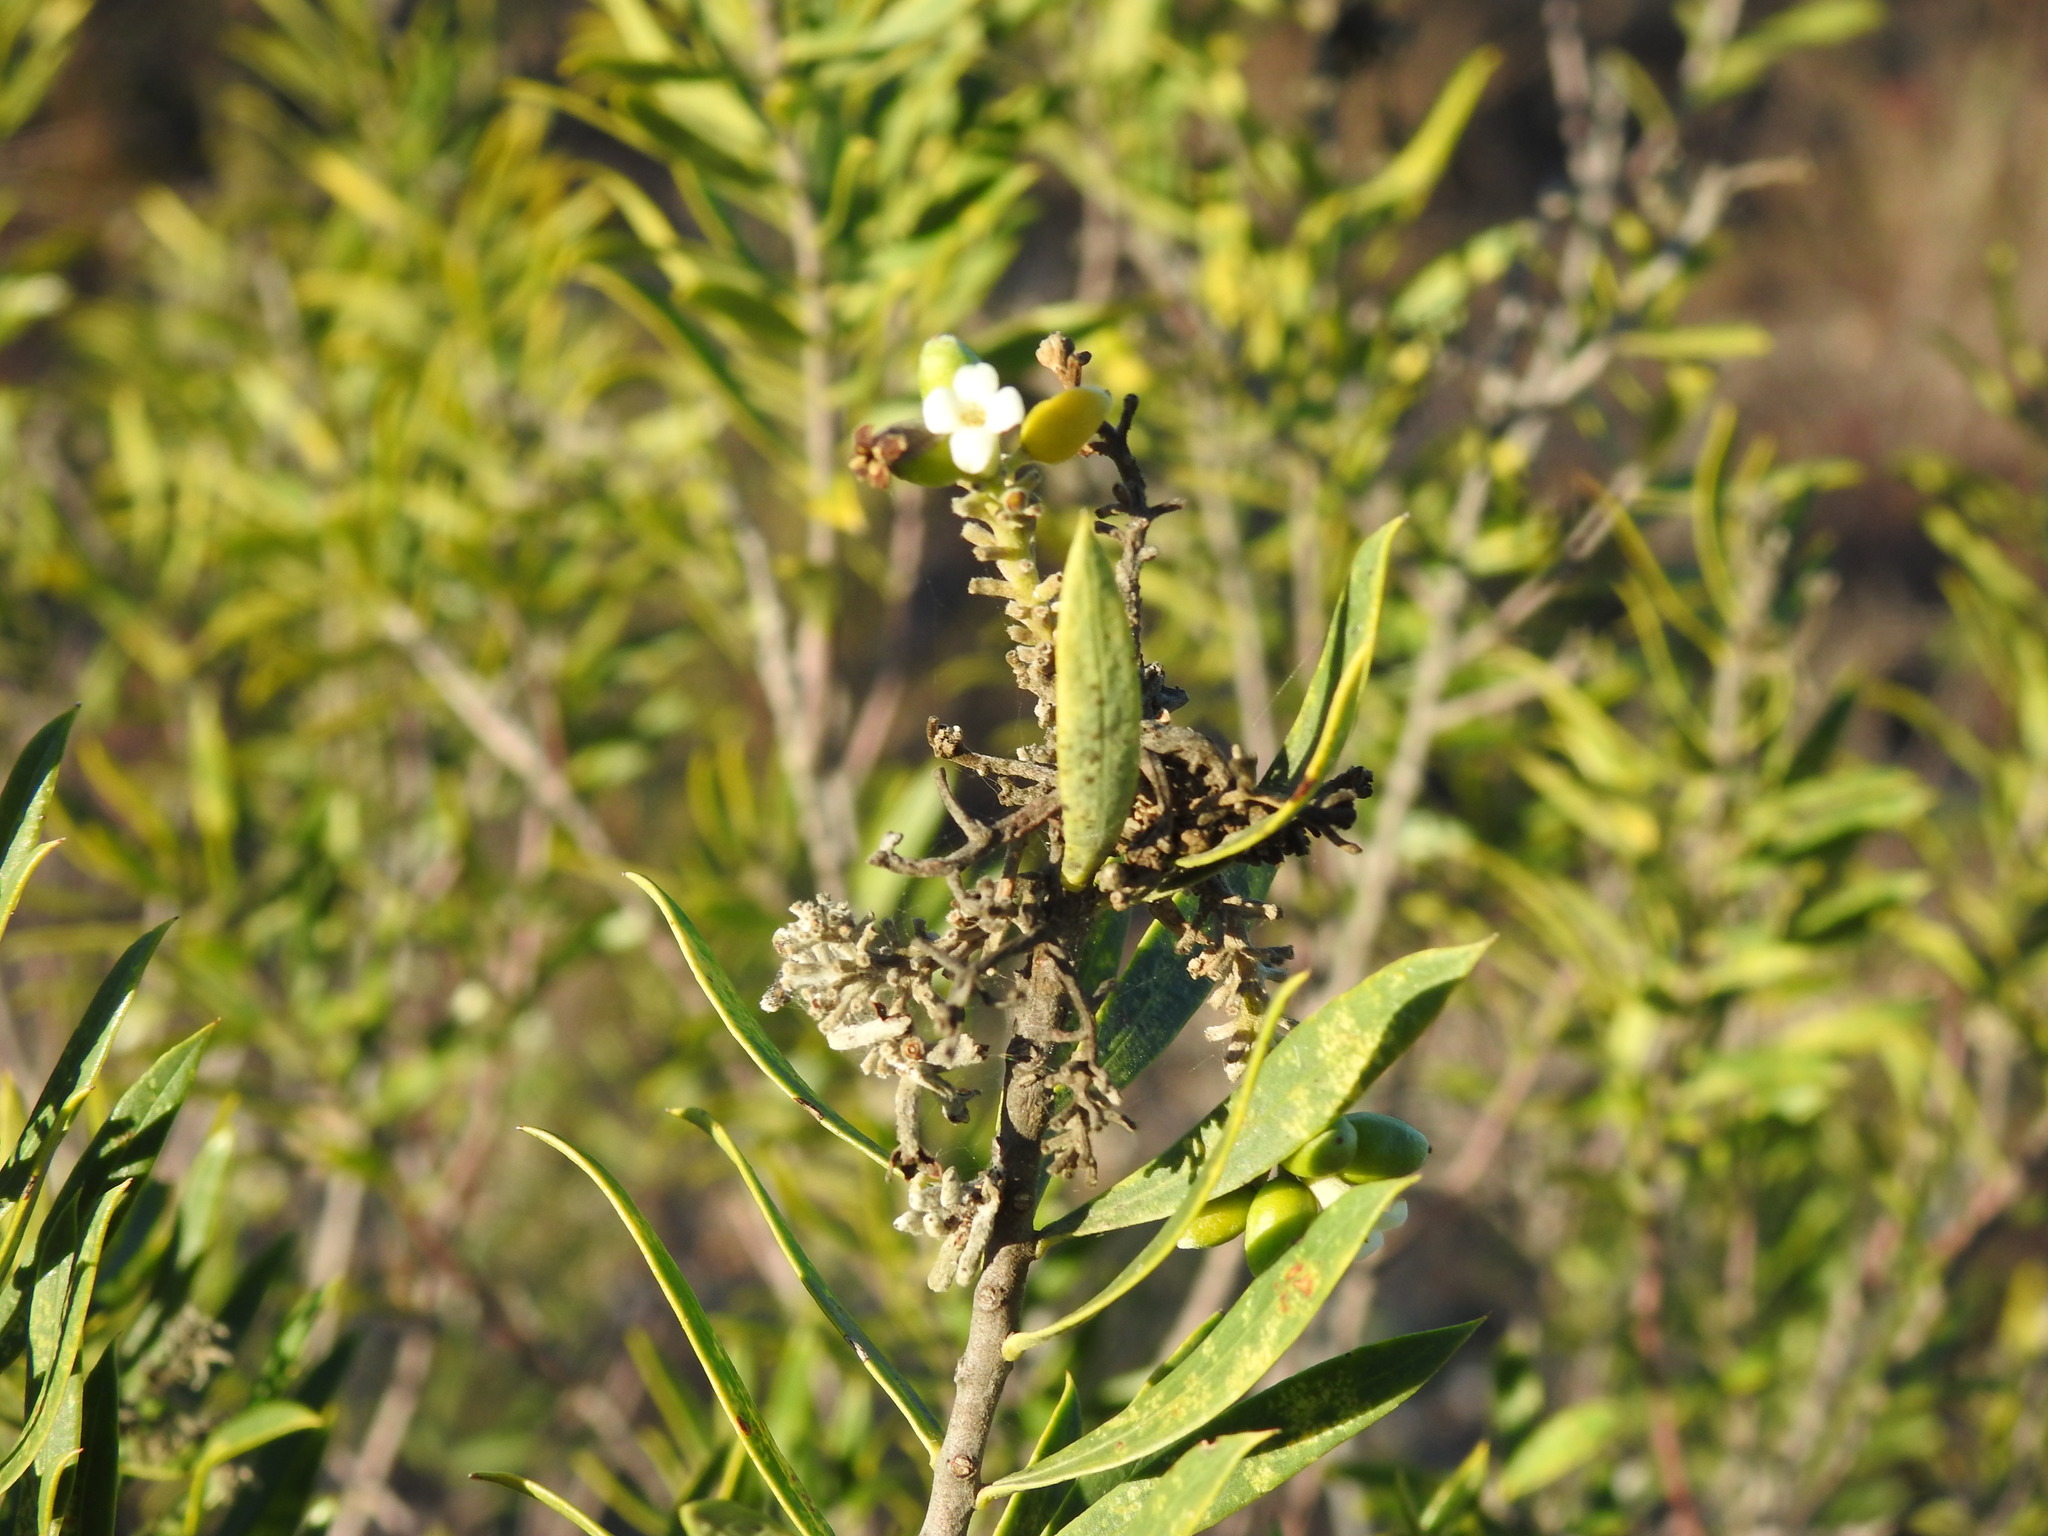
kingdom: Plantae
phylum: Tracheophyta
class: Magnoliopsida
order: Malvales
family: Thymelaeaceae
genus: Daphne
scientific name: Daphne gnidium
